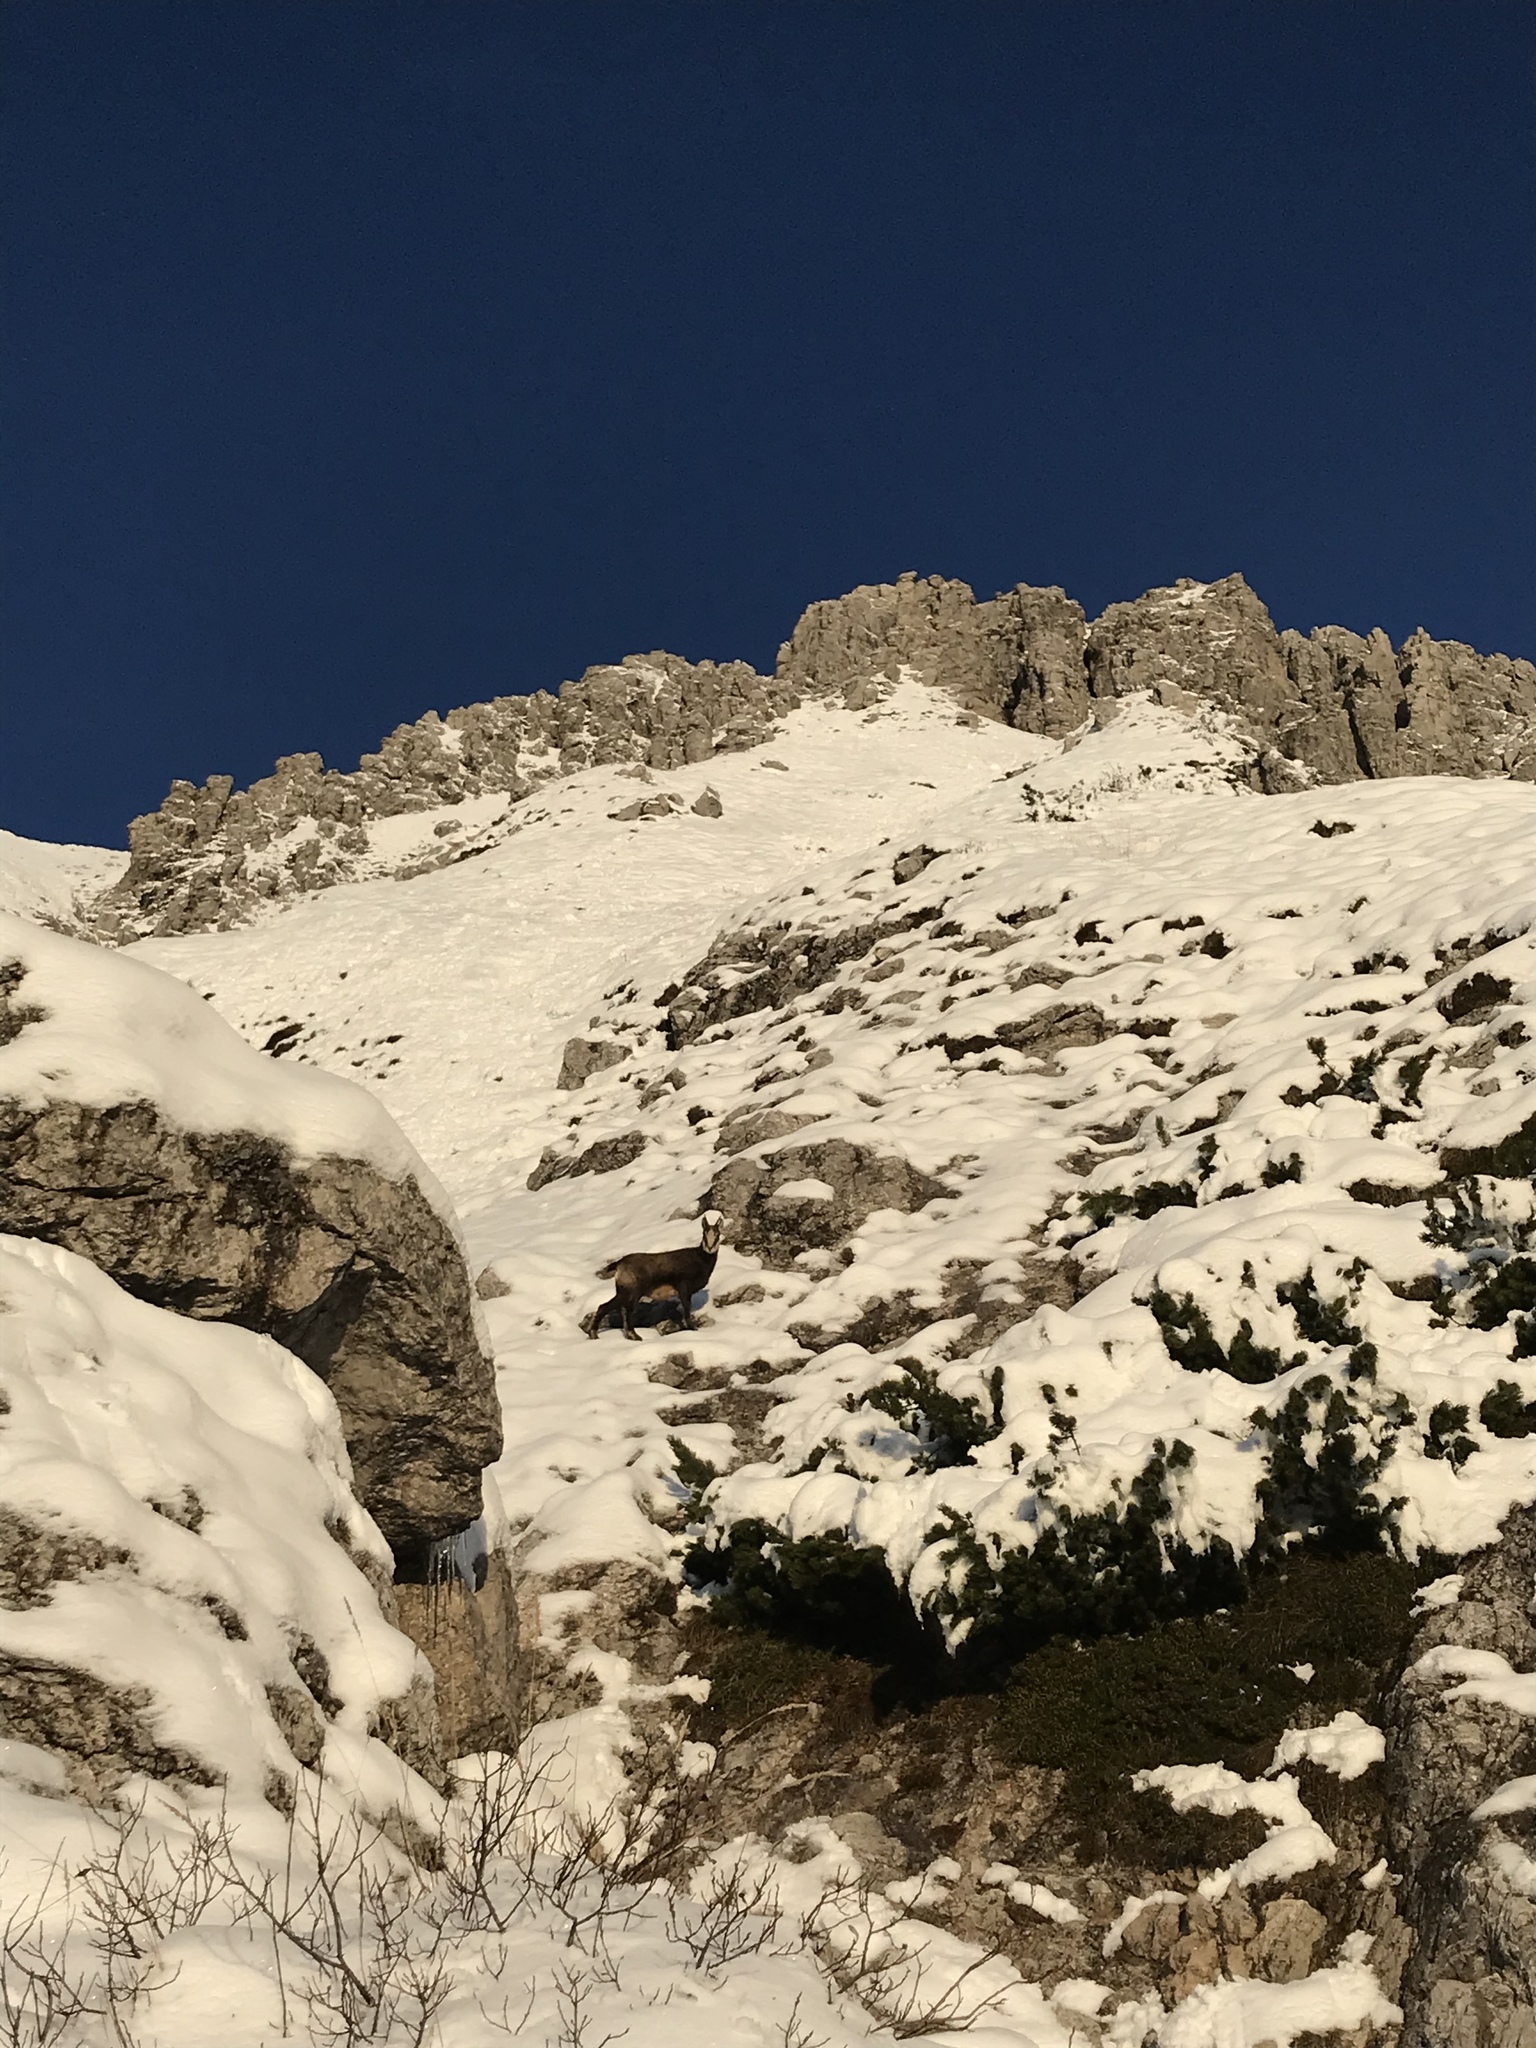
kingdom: Animalia
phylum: Chordata
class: Mammalia
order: Artiodactyla
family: Bovidae
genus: Rupicapra
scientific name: Rupicapra rupicapra
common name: Chamois
